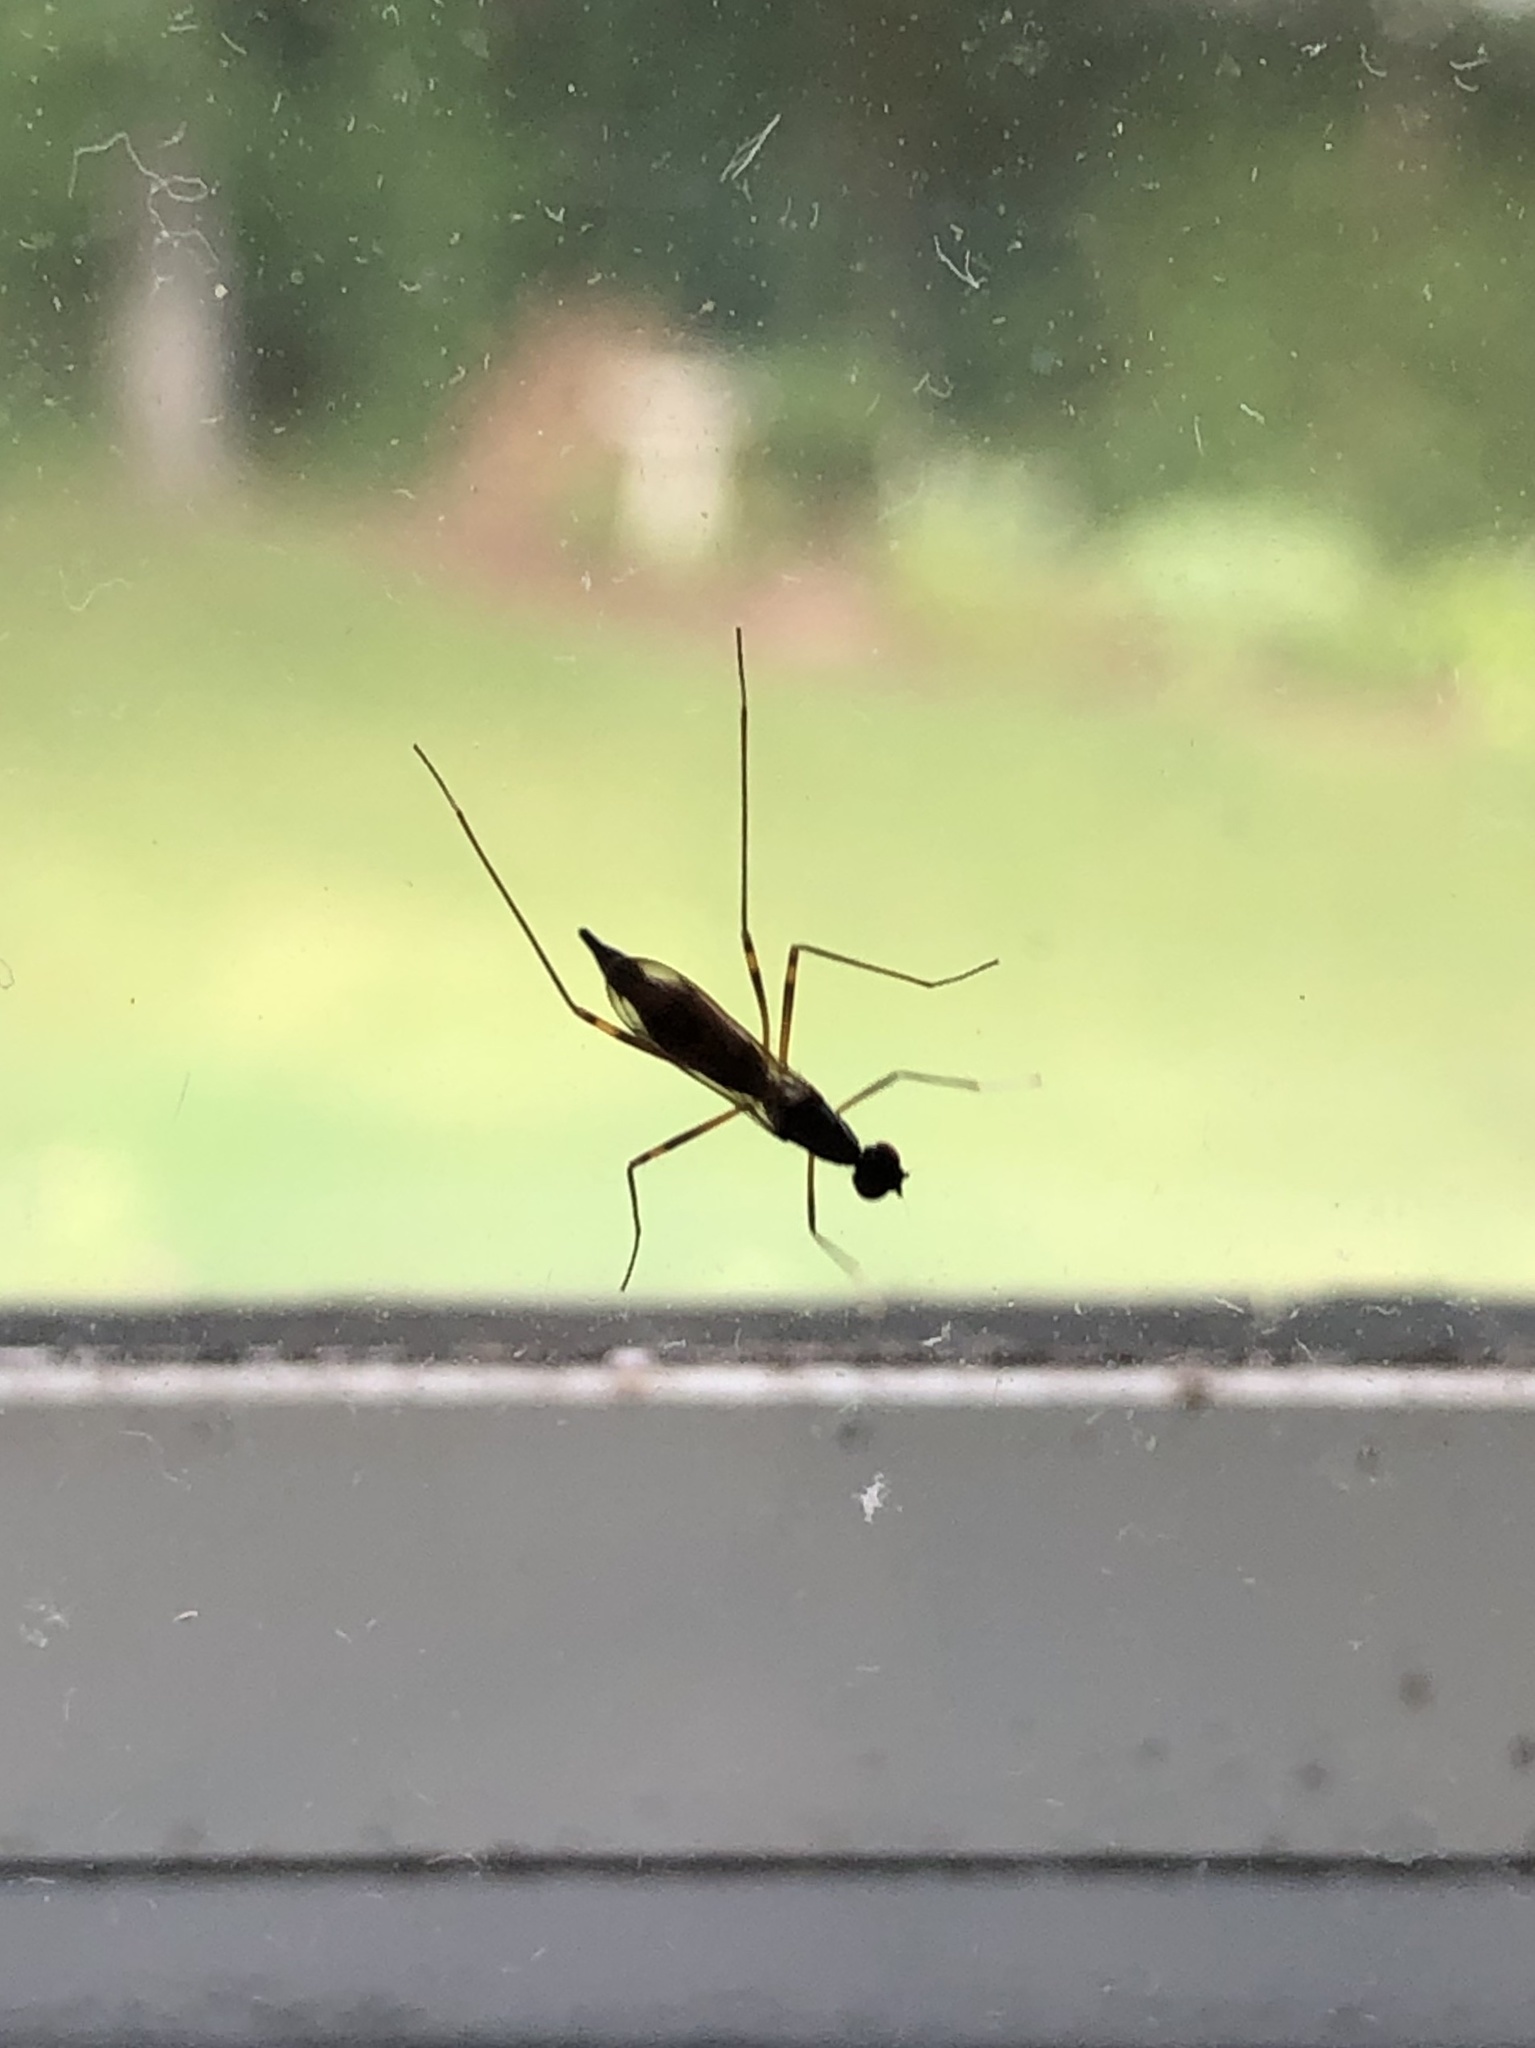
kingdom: Animalia
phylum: Arthropoda
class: Insecta
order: Diptera
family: Micropezidae
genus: Rainieria
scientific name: Rainieria antennaepes
